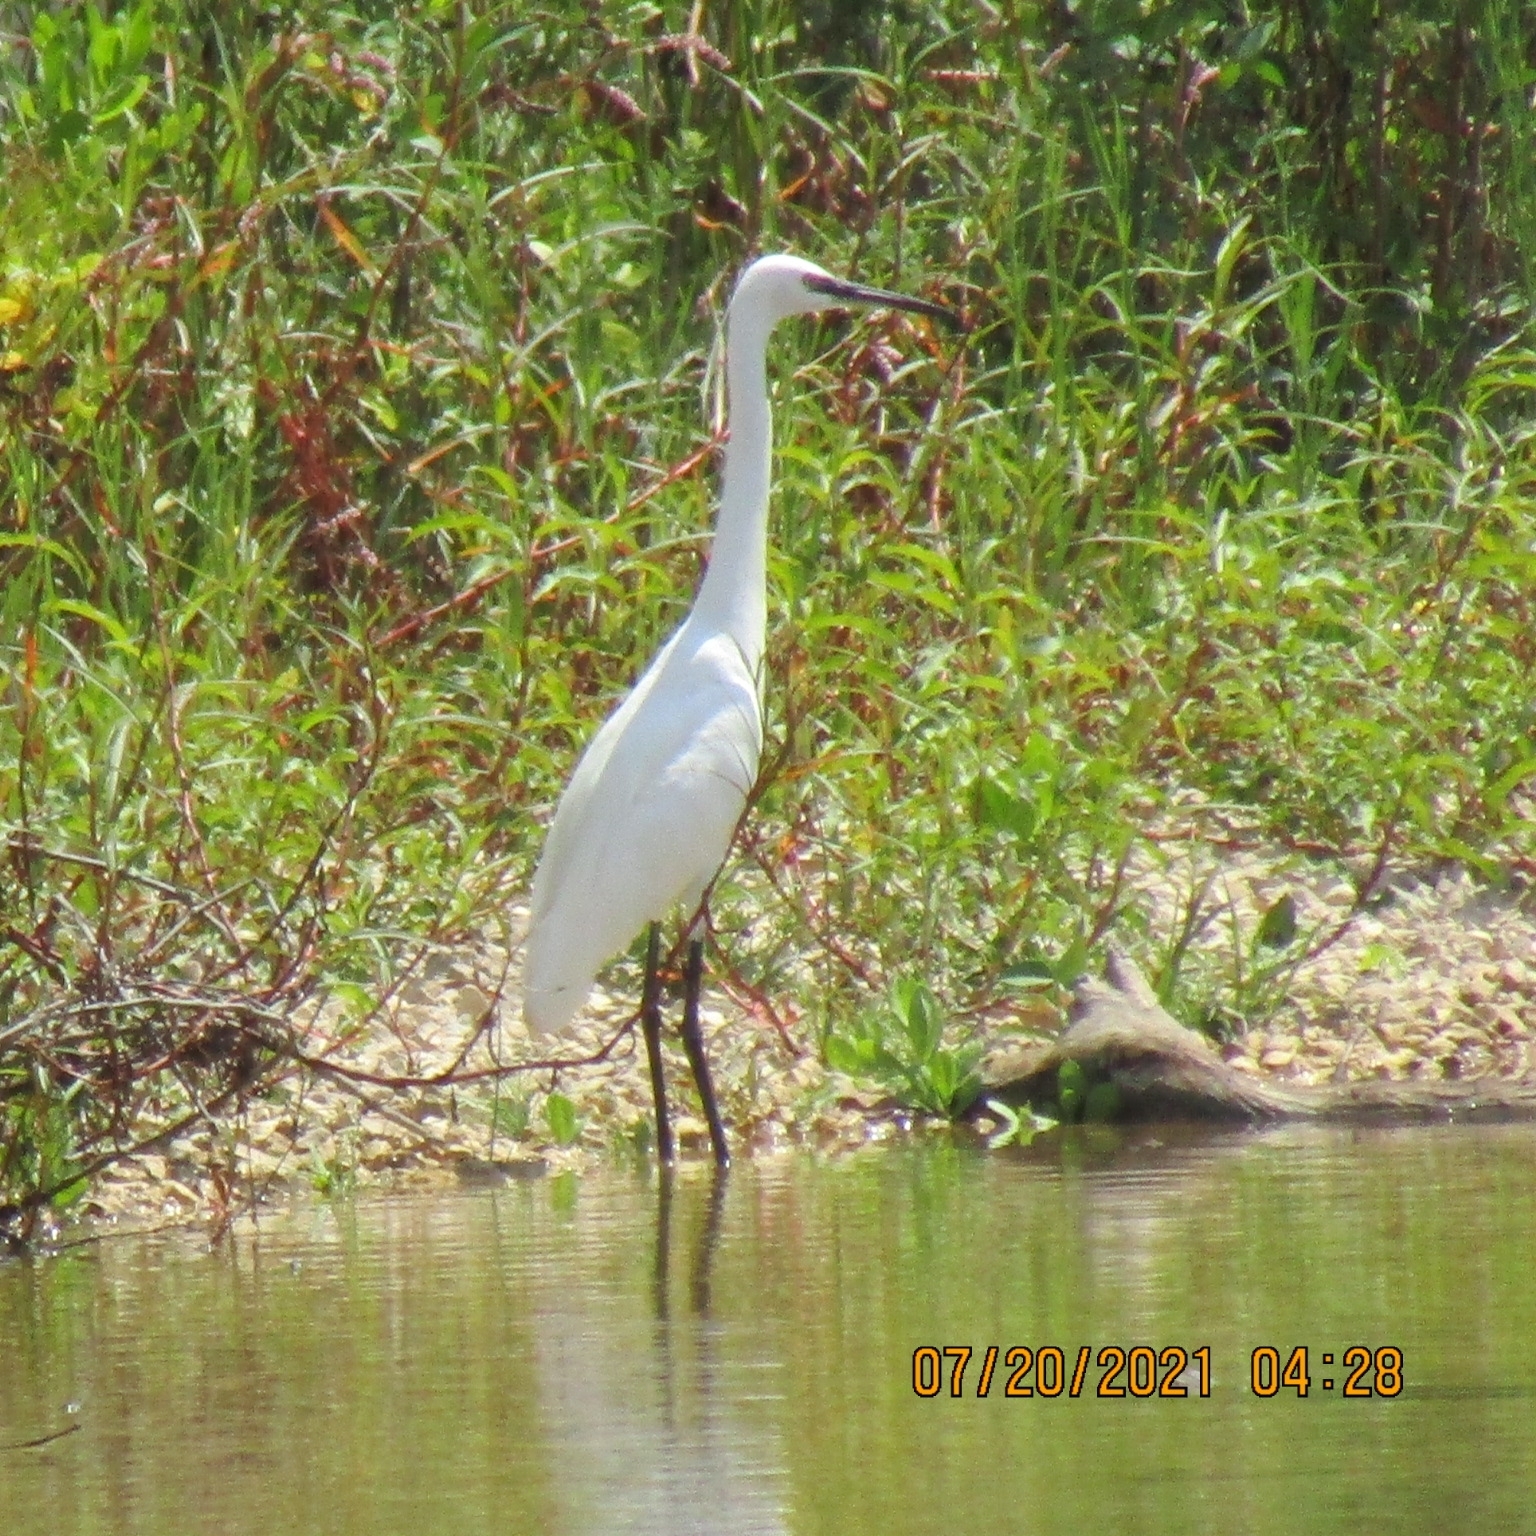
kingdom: Animalia
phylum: Chordata
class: Aves
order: Pelecaniformes
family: Ardeidae
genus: Egretta
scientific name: Egretta garzetta
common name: Little egret
